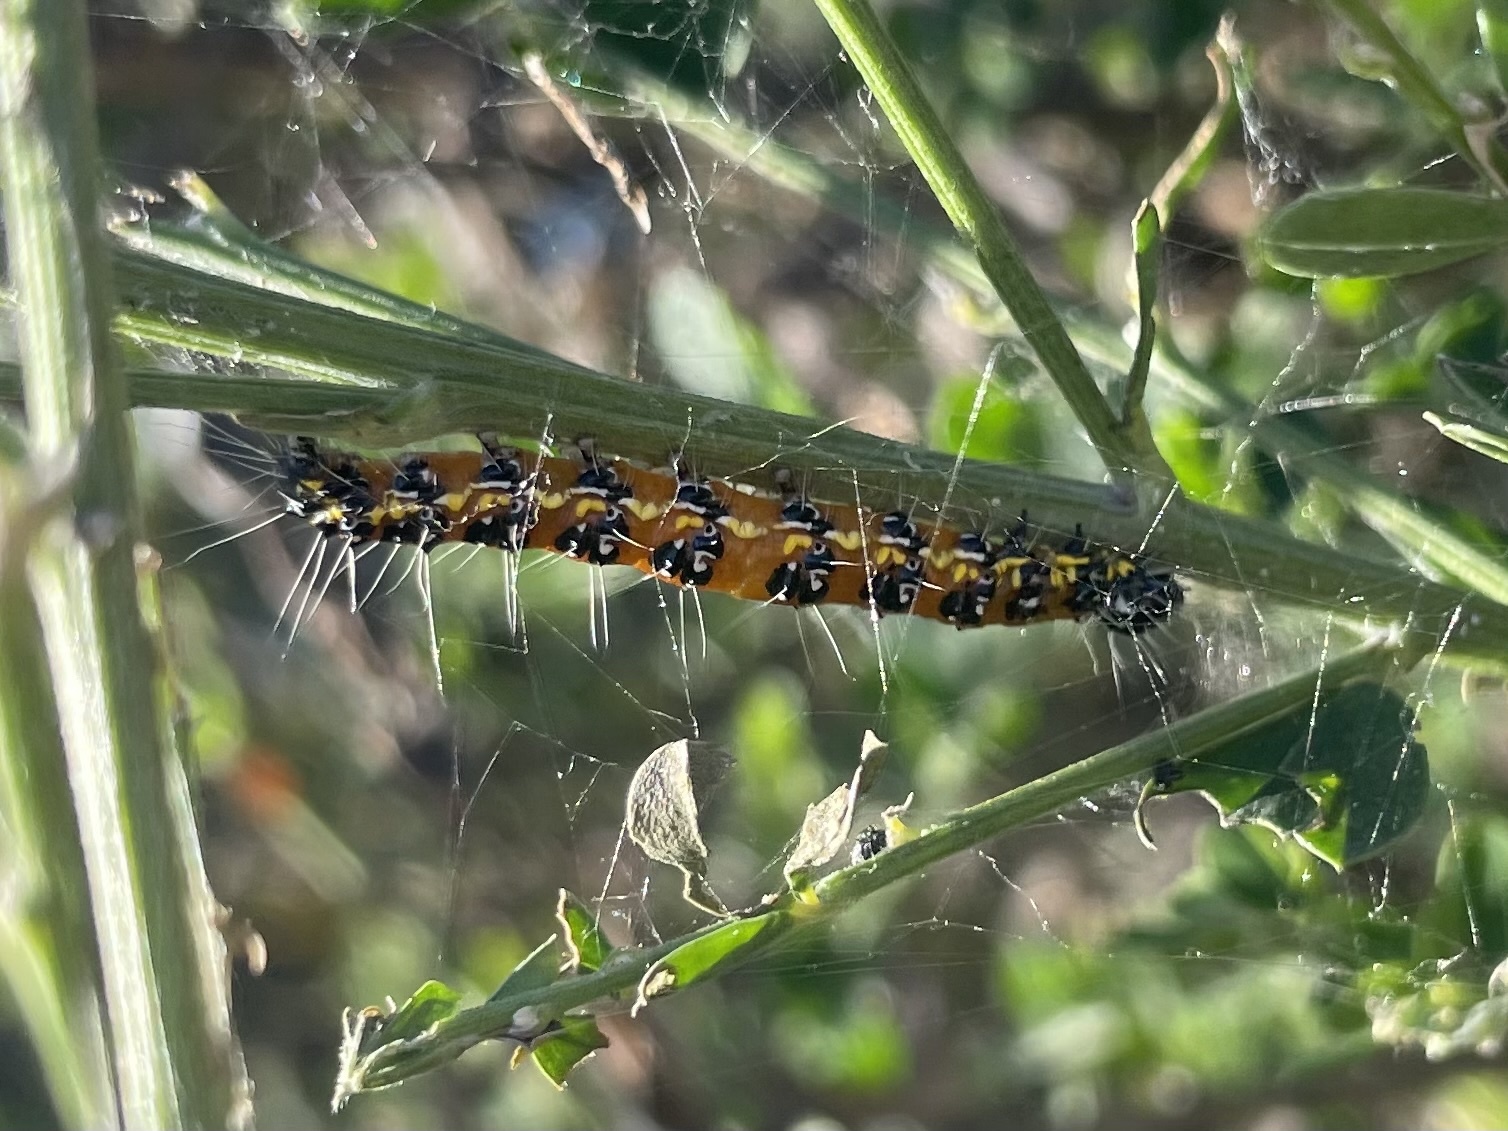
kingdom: Animalia
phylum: Arthropoda
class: Insecta
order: Lepidoptera
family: Crambidae
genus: Uresiphita
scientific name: Uresiphita reversalis
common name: Genista broom moth
